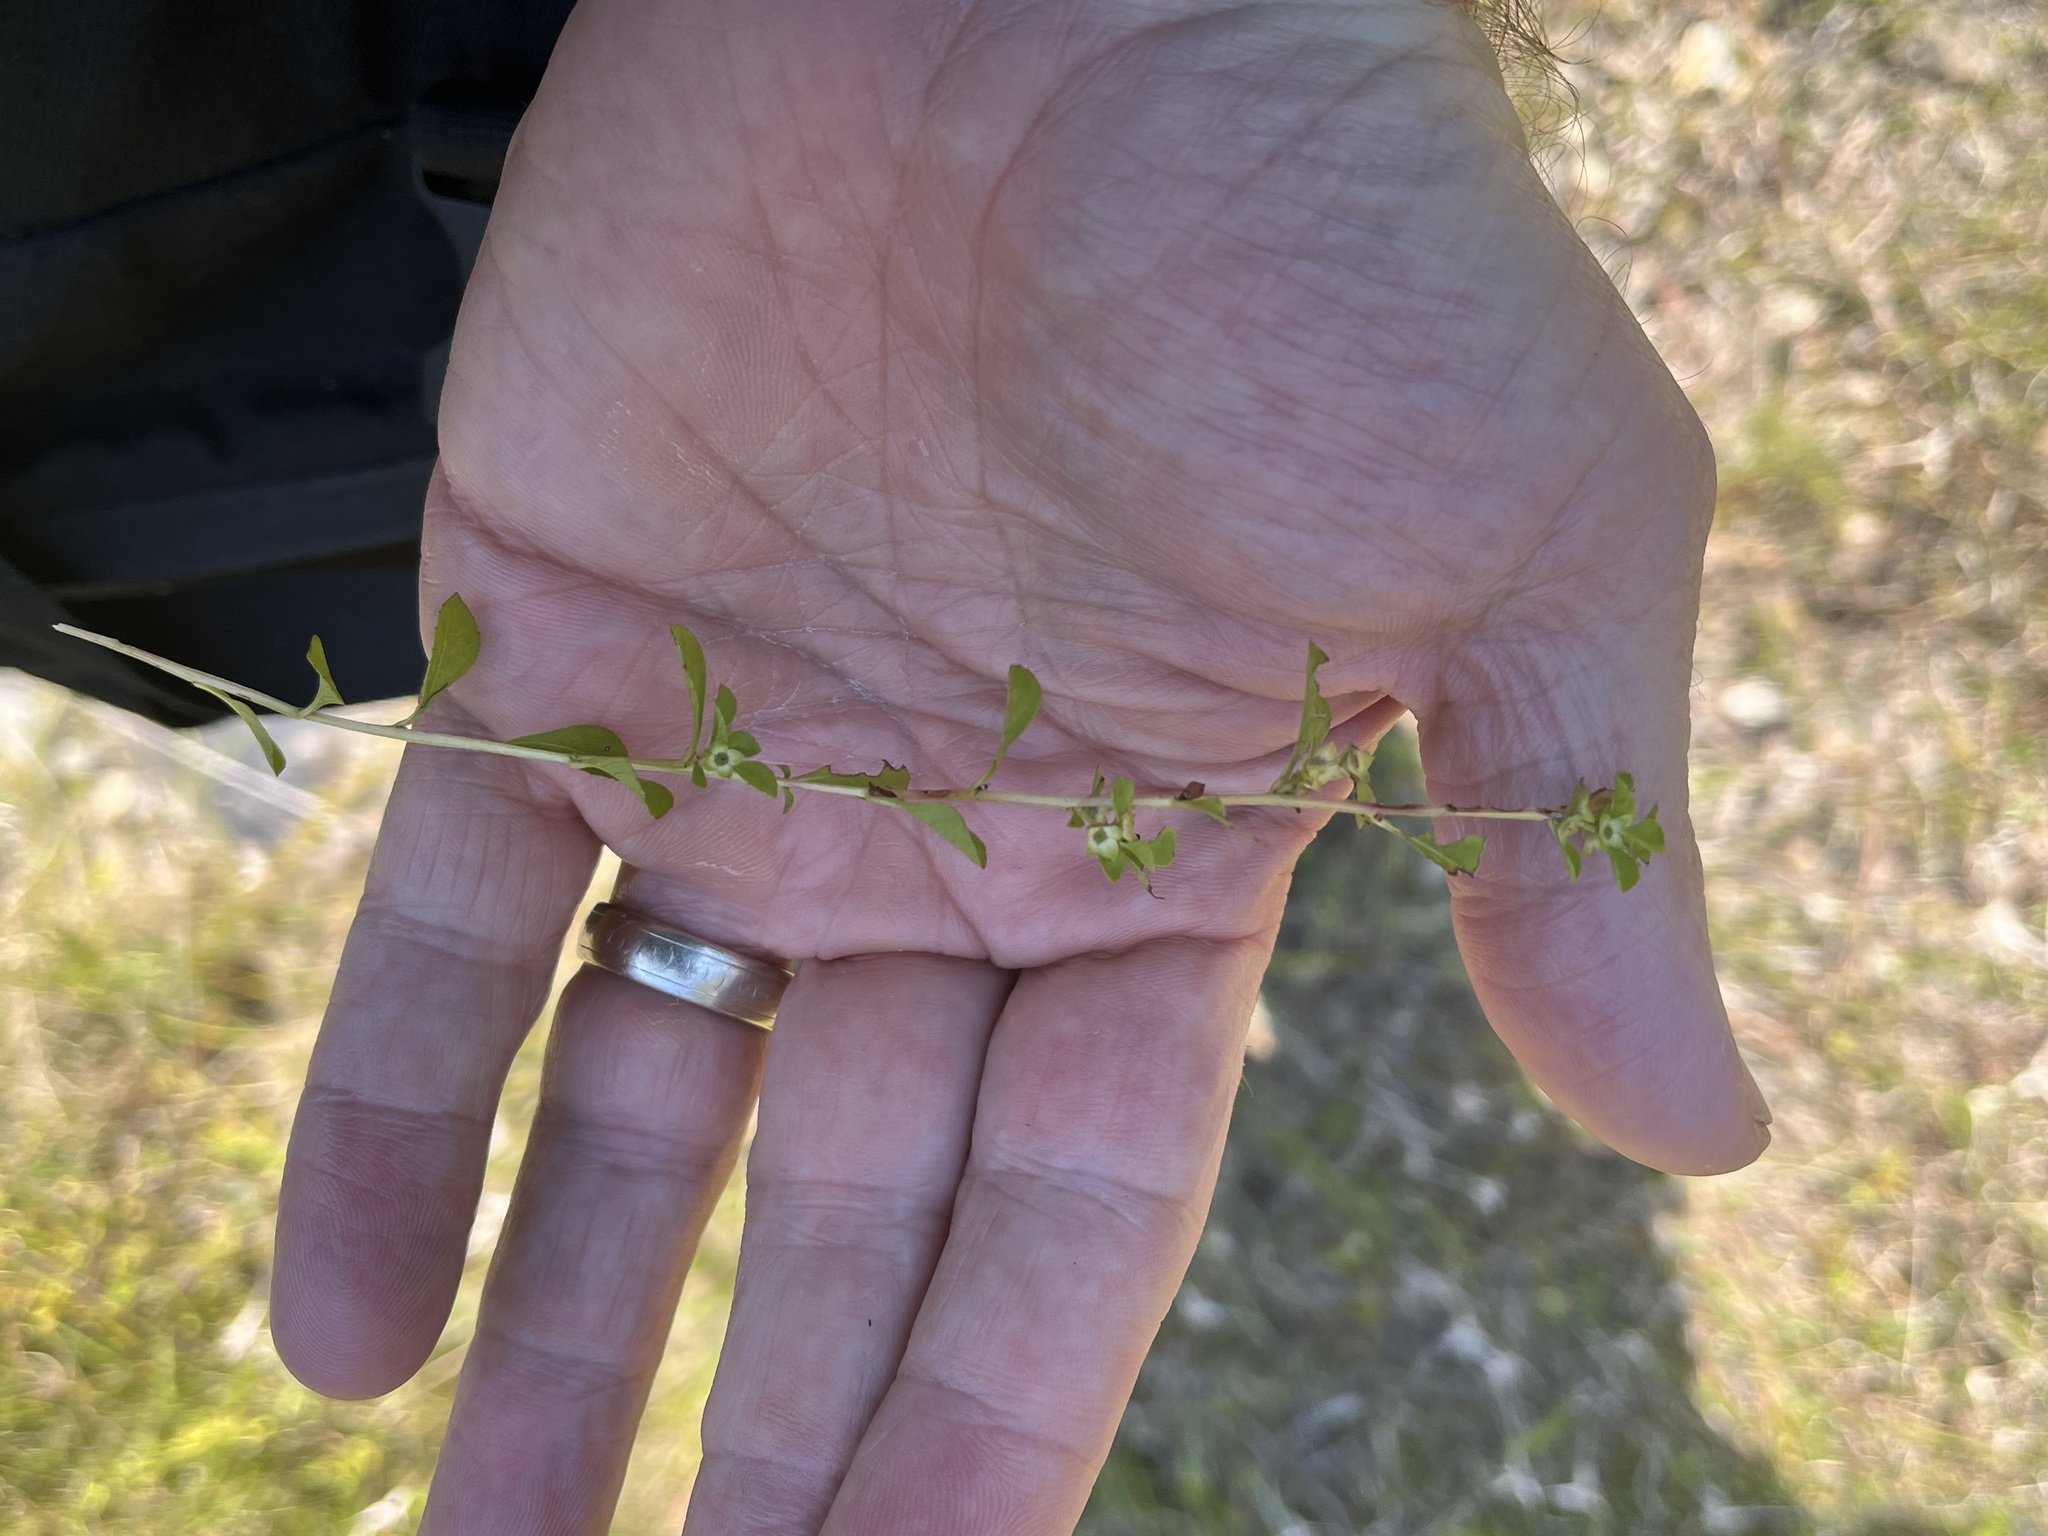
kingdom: Plantae
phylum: Tracheophyta
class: Magnoliopsida
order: Myrtales
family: Onagraceae
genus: Ludwigia
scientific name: Ludwigia microcarpa
